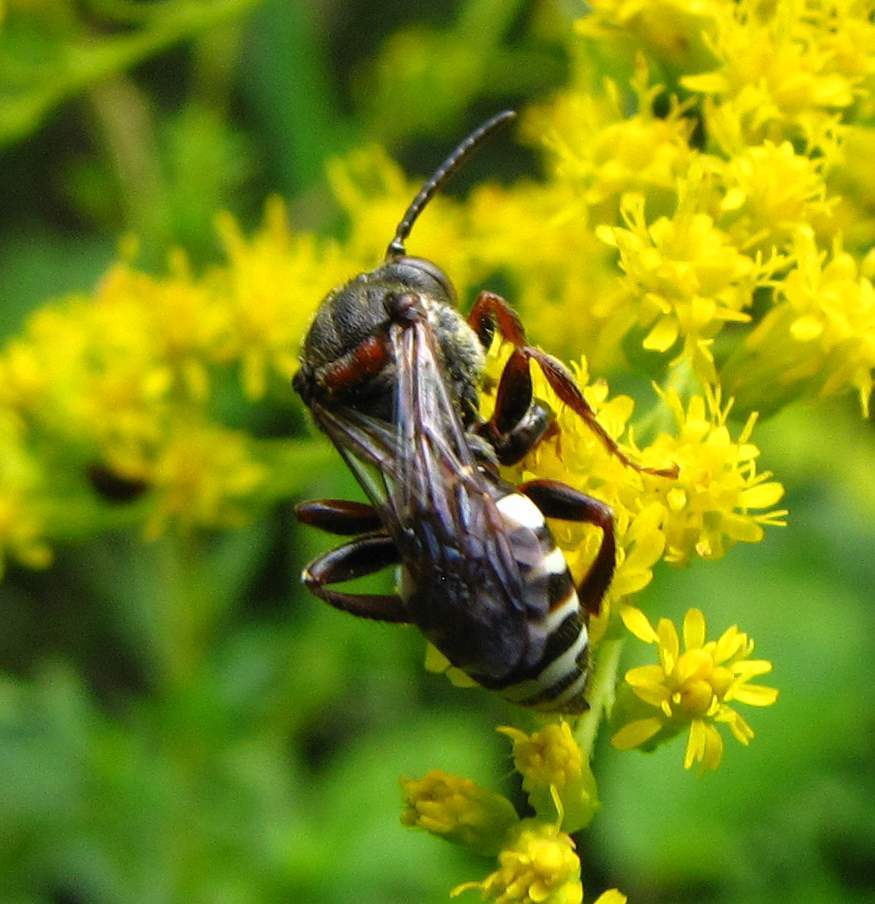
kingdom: Animalia
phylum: Arthropoda
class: Insecta
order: Hymenoptera
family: Apidae
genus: Nomada
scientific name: Nomada vicina
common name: Neighborly nomad
